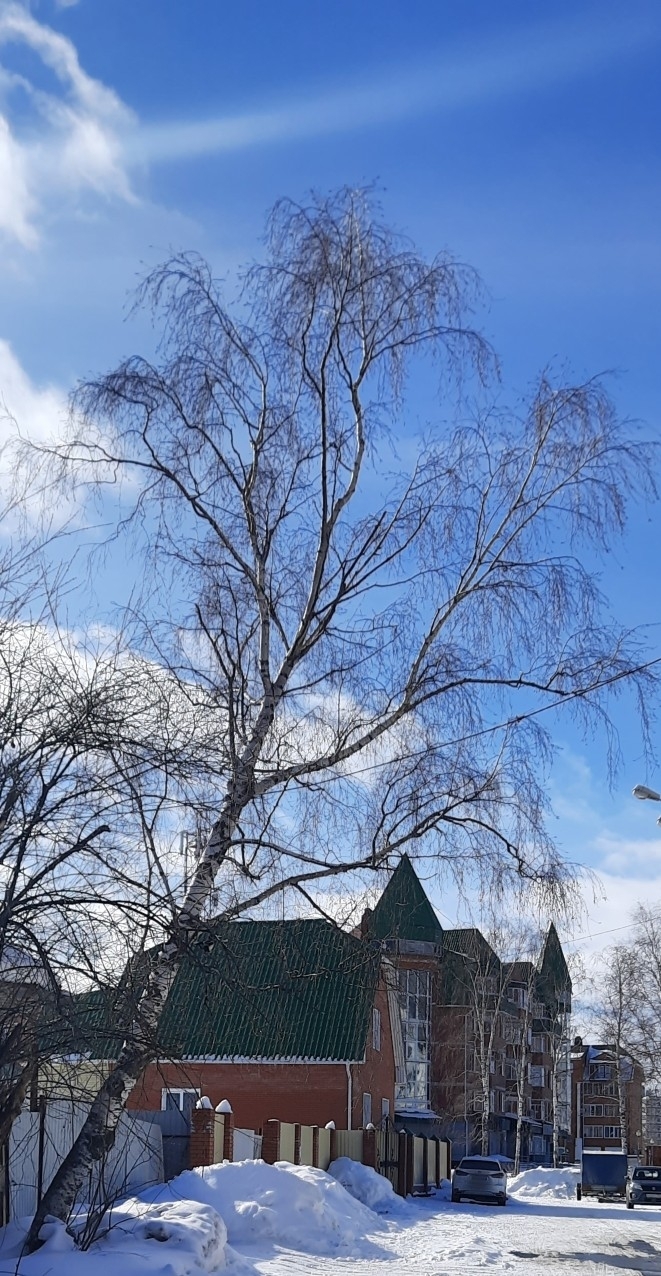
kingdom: Plantae
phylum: Tracheophyta
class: Magnoliopsida
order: Fagales
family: Betulaceae
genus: Betula
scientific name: Betula pendula
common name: Silver birch
